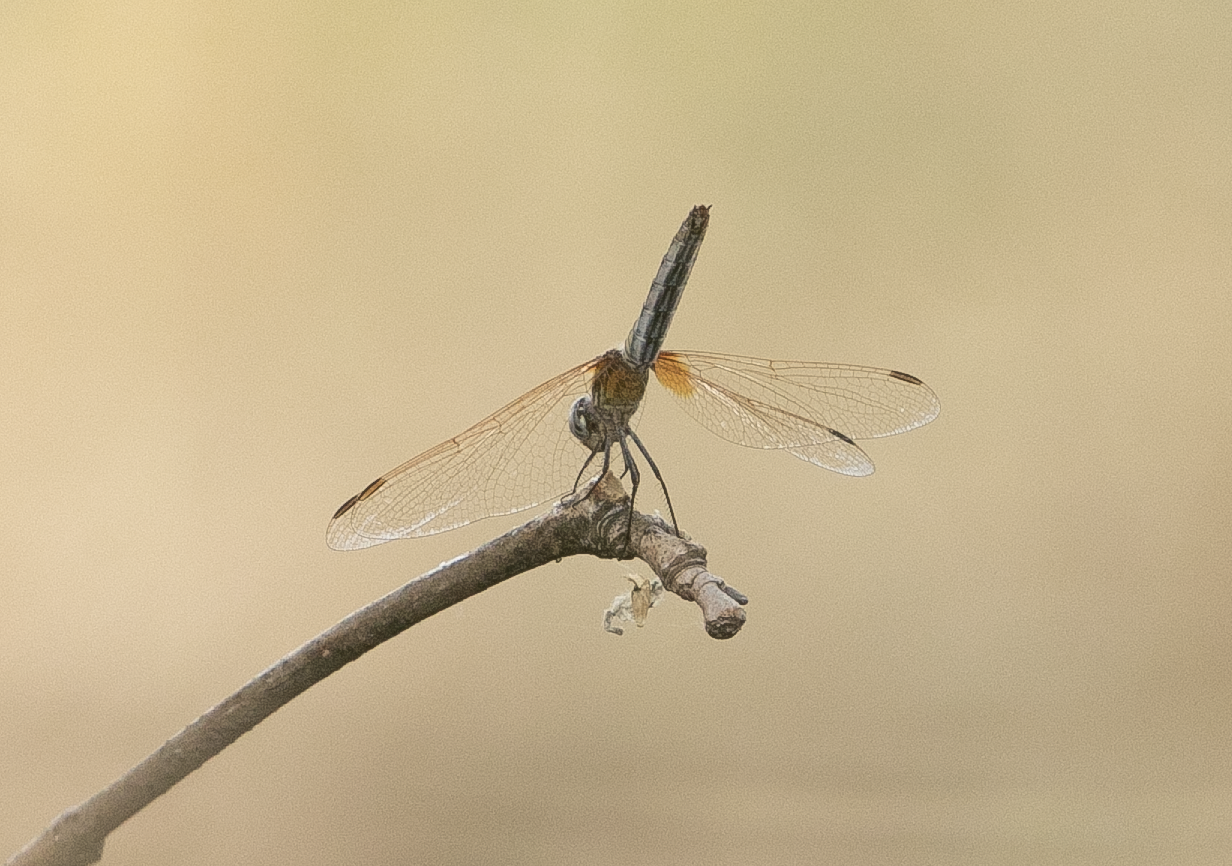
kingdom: Animalia
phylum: Arthropoda
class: Insecta
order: Odonata
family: Libellulidae
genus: Trithemis
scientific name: Trithemis annulata
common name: Violet dropwing
